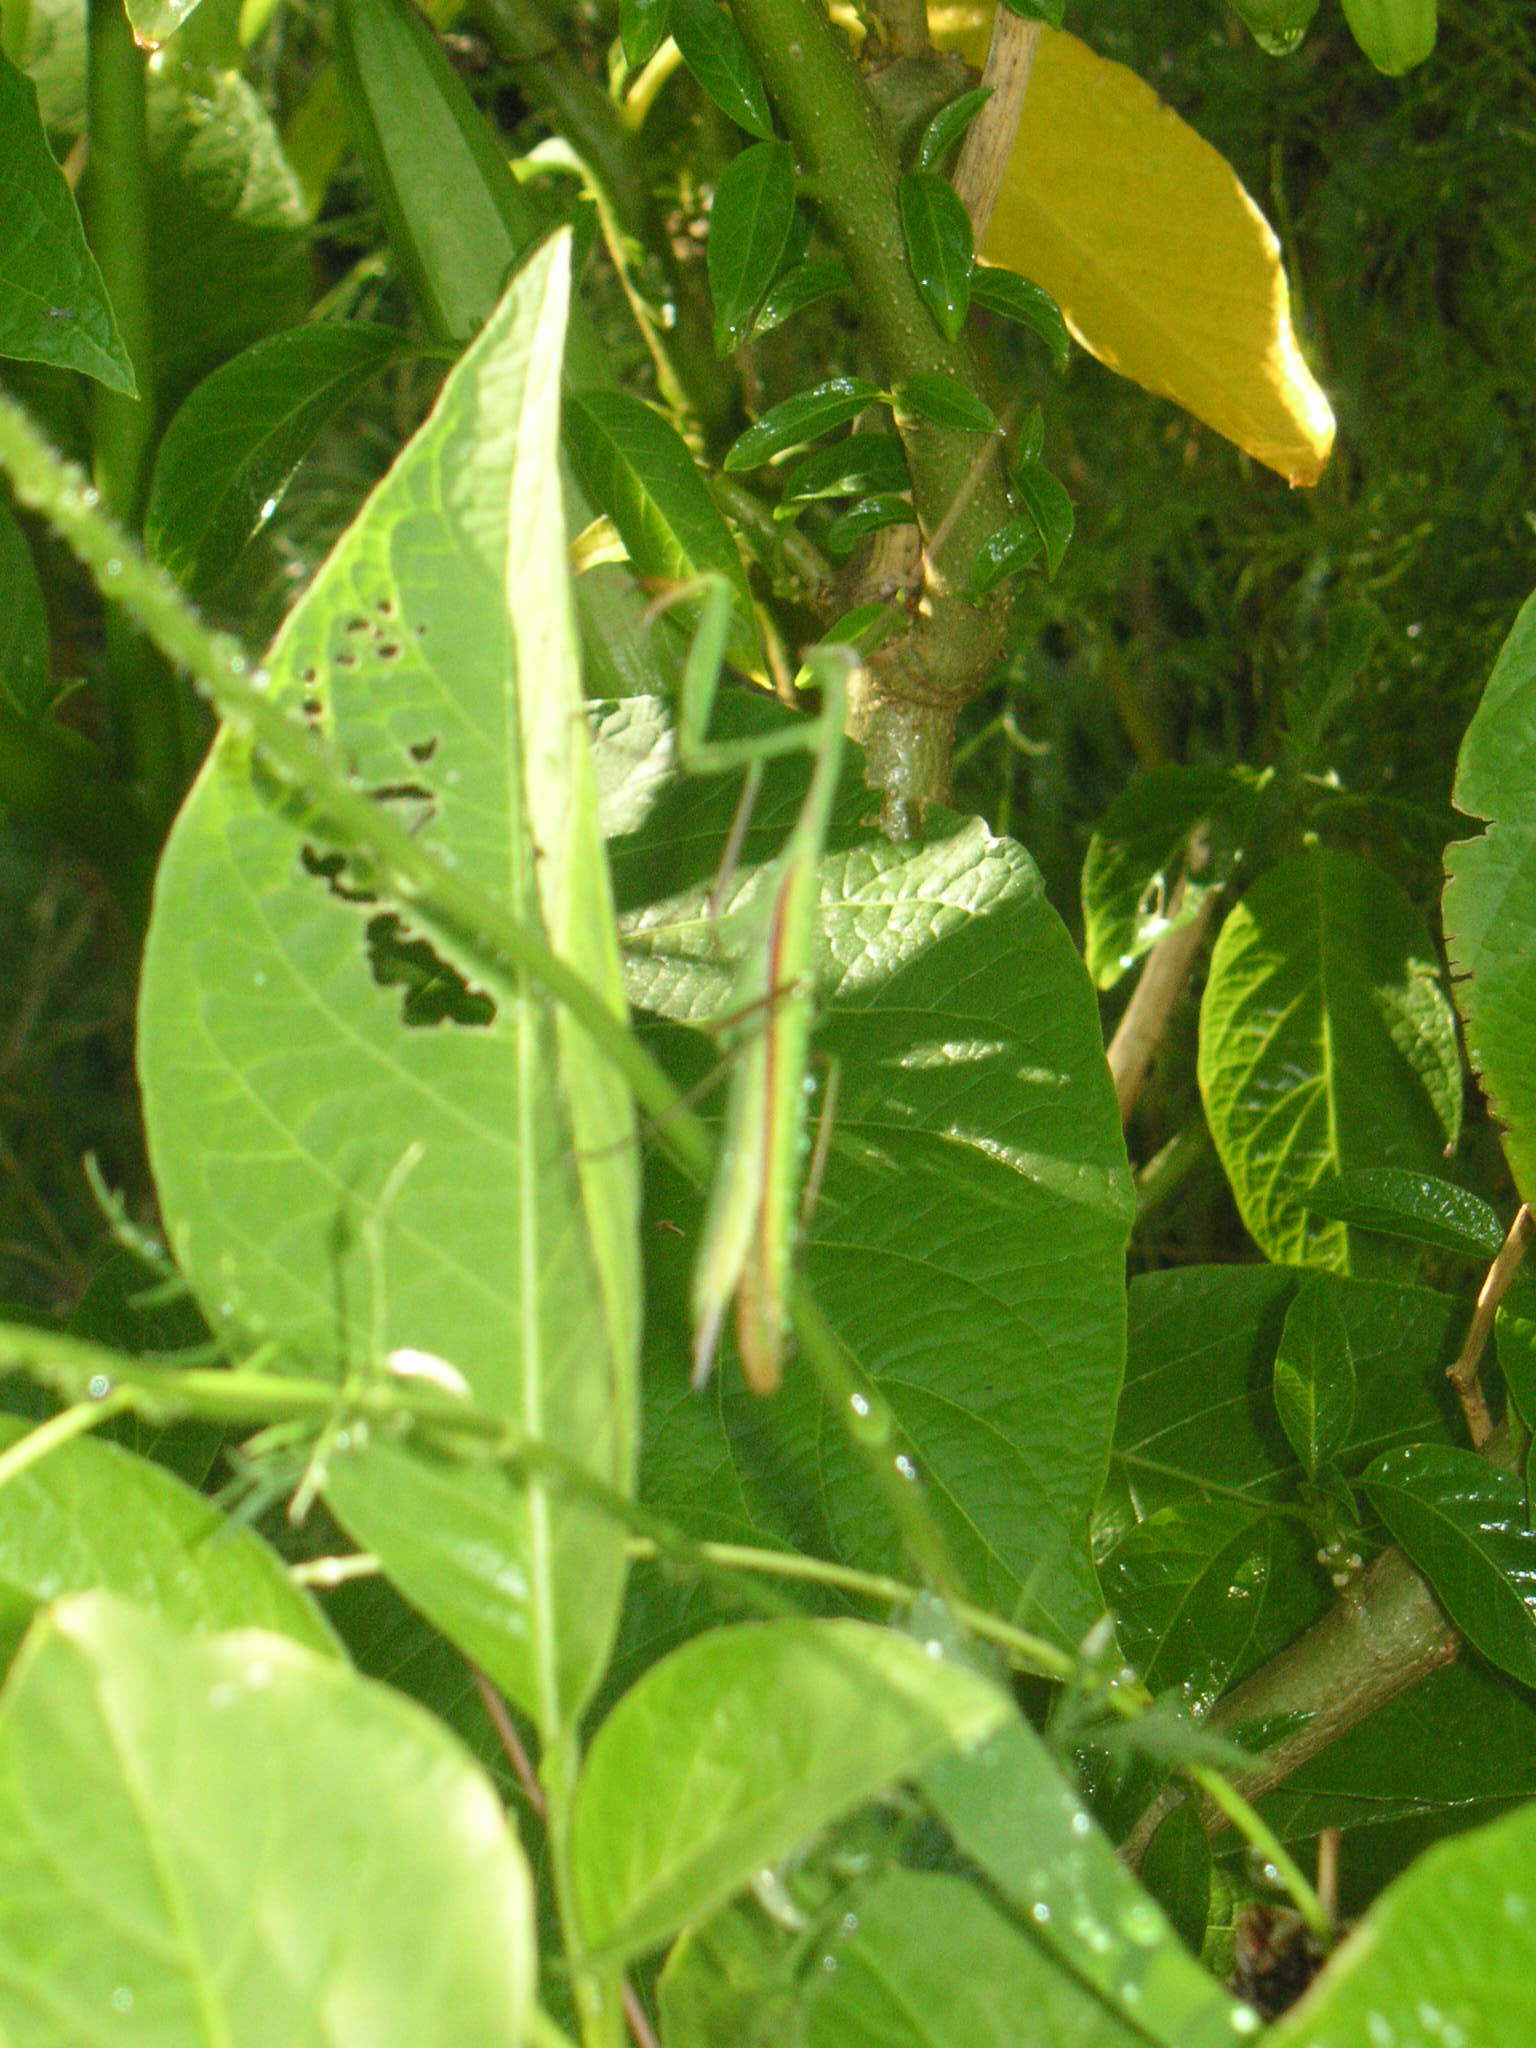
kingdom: Animalia
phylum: Arthropoda
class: Insecta
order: Mantodea
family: Mantidae
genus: Mantis
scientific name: Mantis religiosa
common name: Praying mantis
